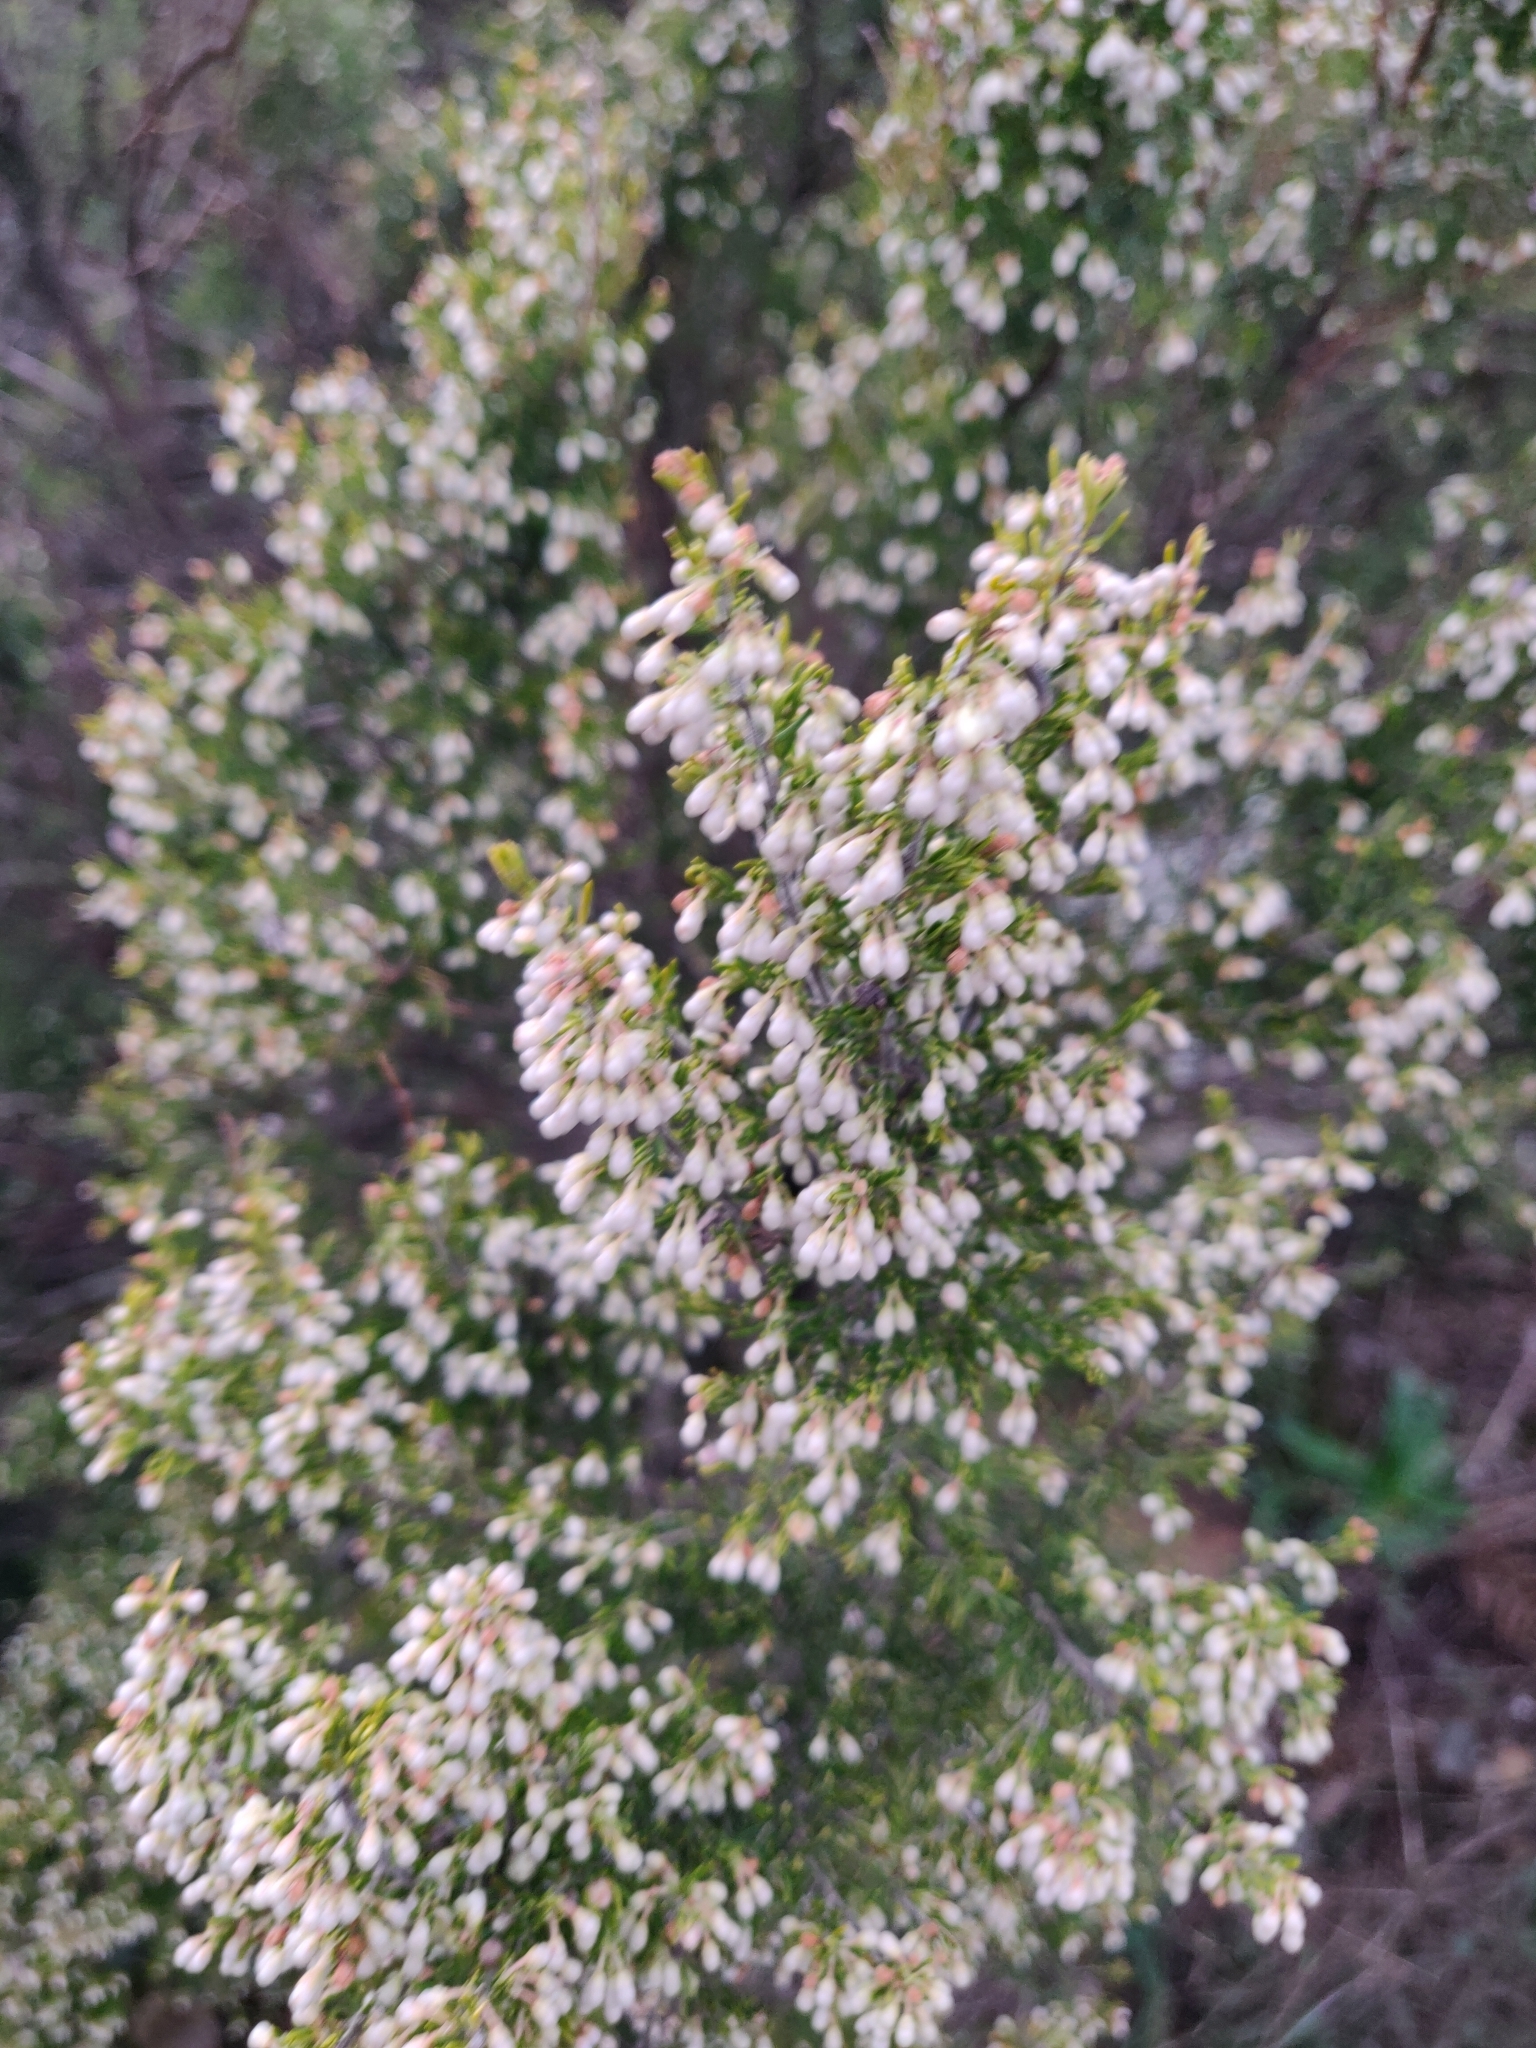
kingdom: Plantae
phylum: Tracheophyta
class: Magnoliopsida
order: Ericales
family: Ericaceae
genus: Erica
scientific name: Erica arborea
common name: Tree heath
